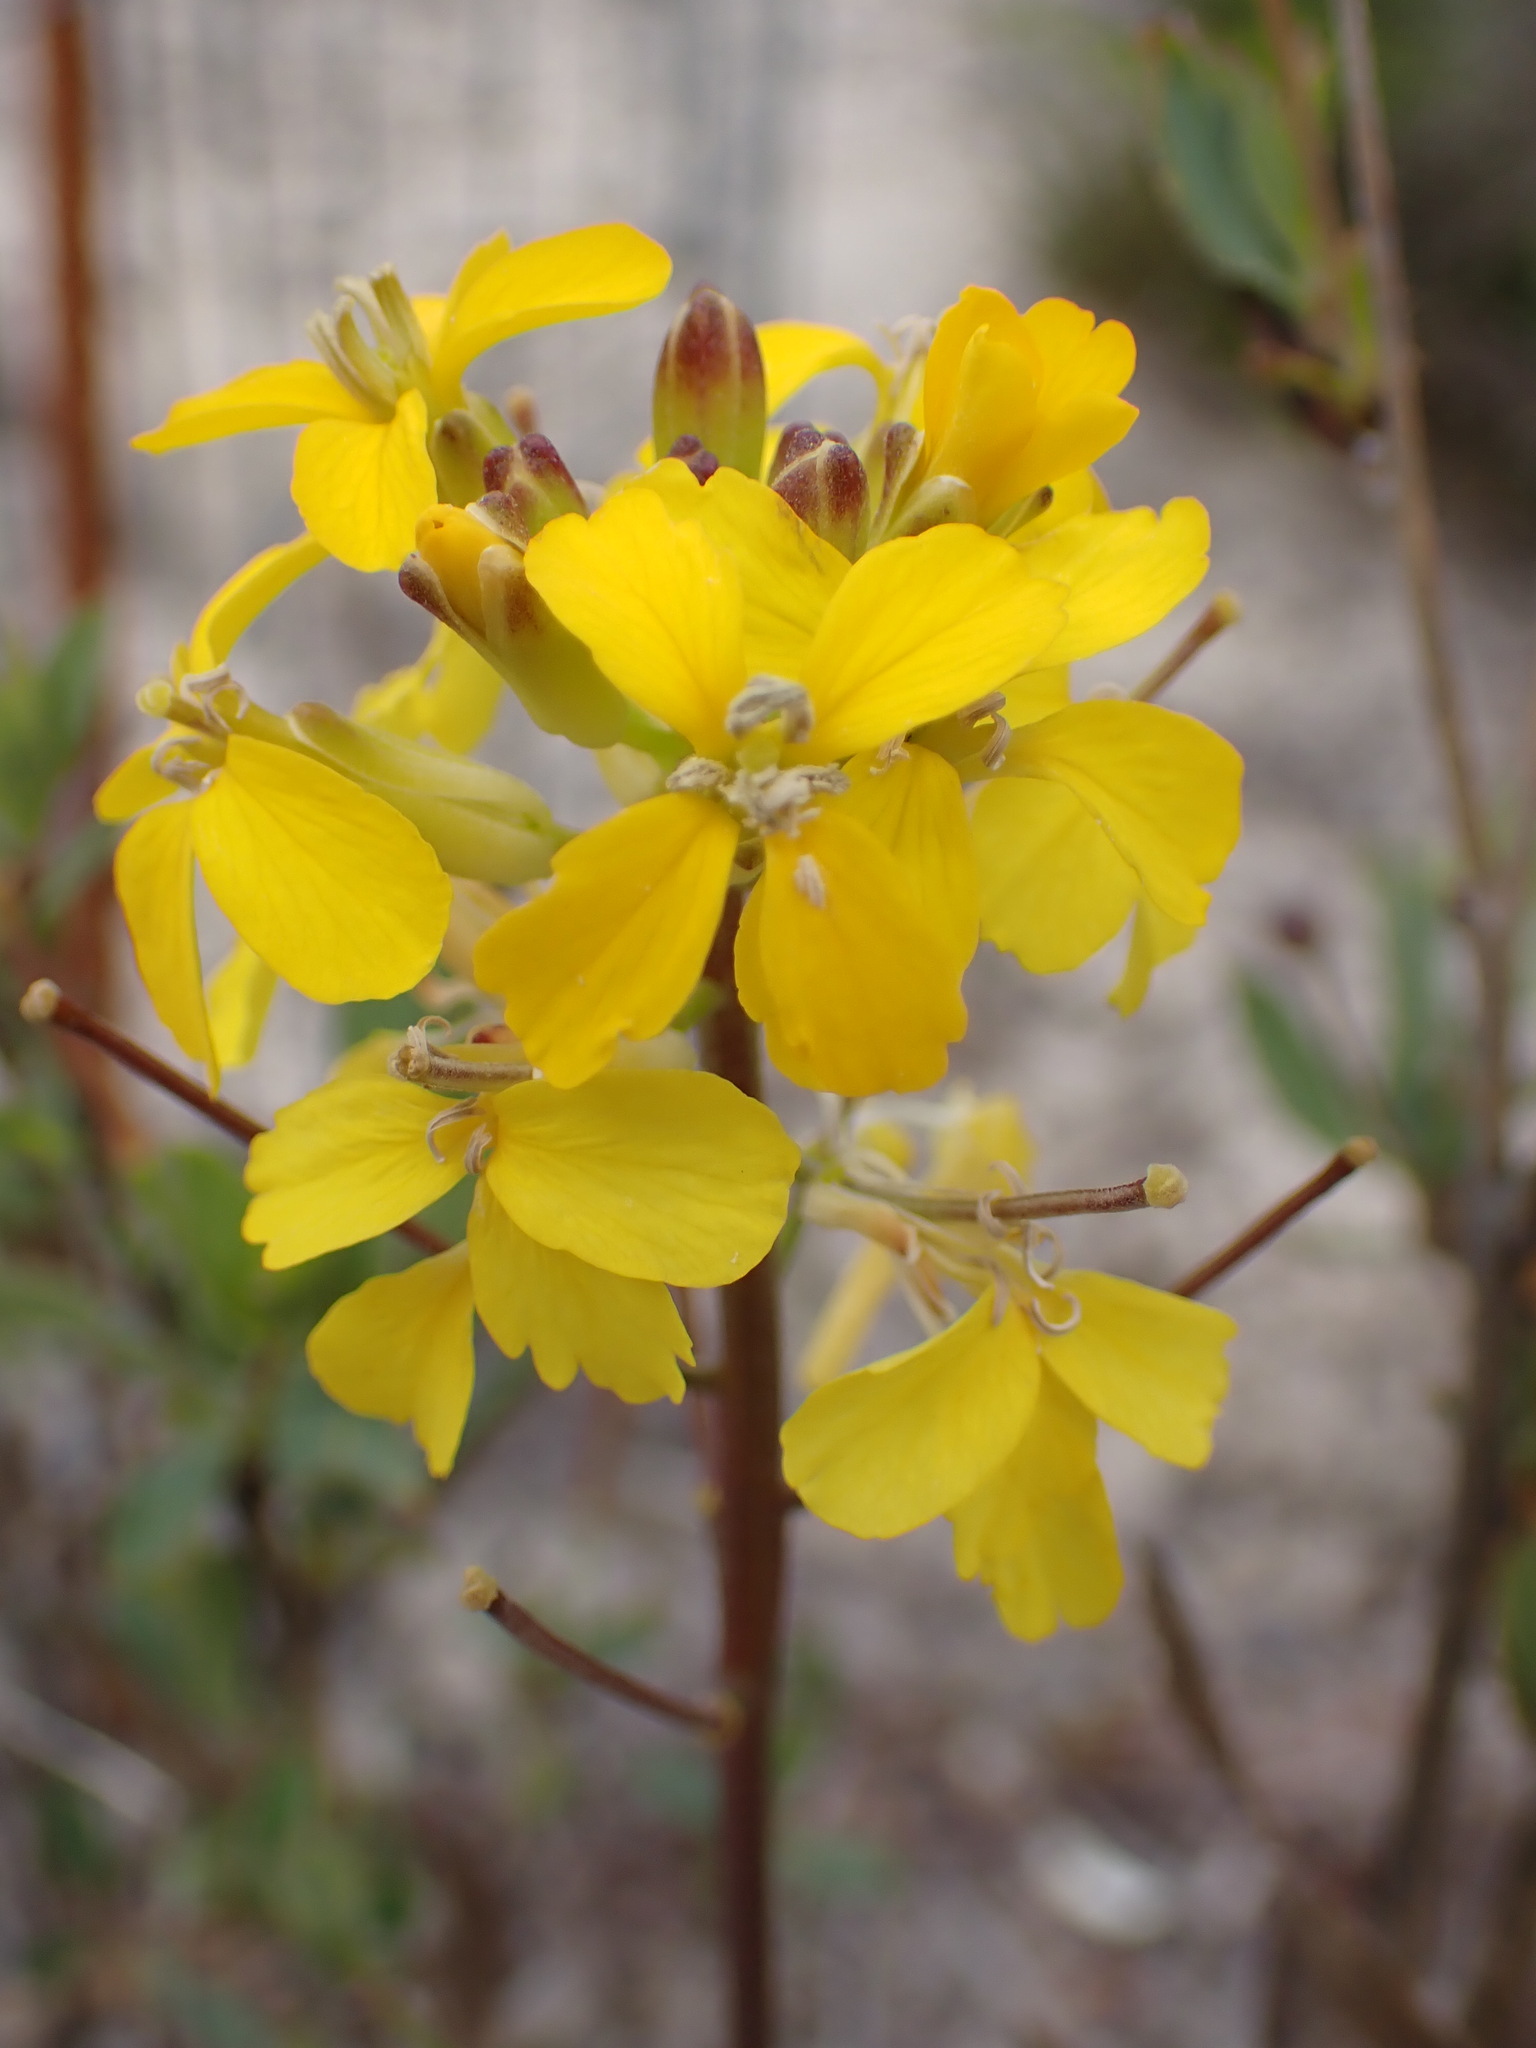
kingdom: Plantae
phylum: Tracheophyta
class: Magnoliopsida
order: Brassicales
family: Brassicaceae
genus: Erysimum
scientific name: Erysimum teretifolium
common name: Ben lomond wallflower
